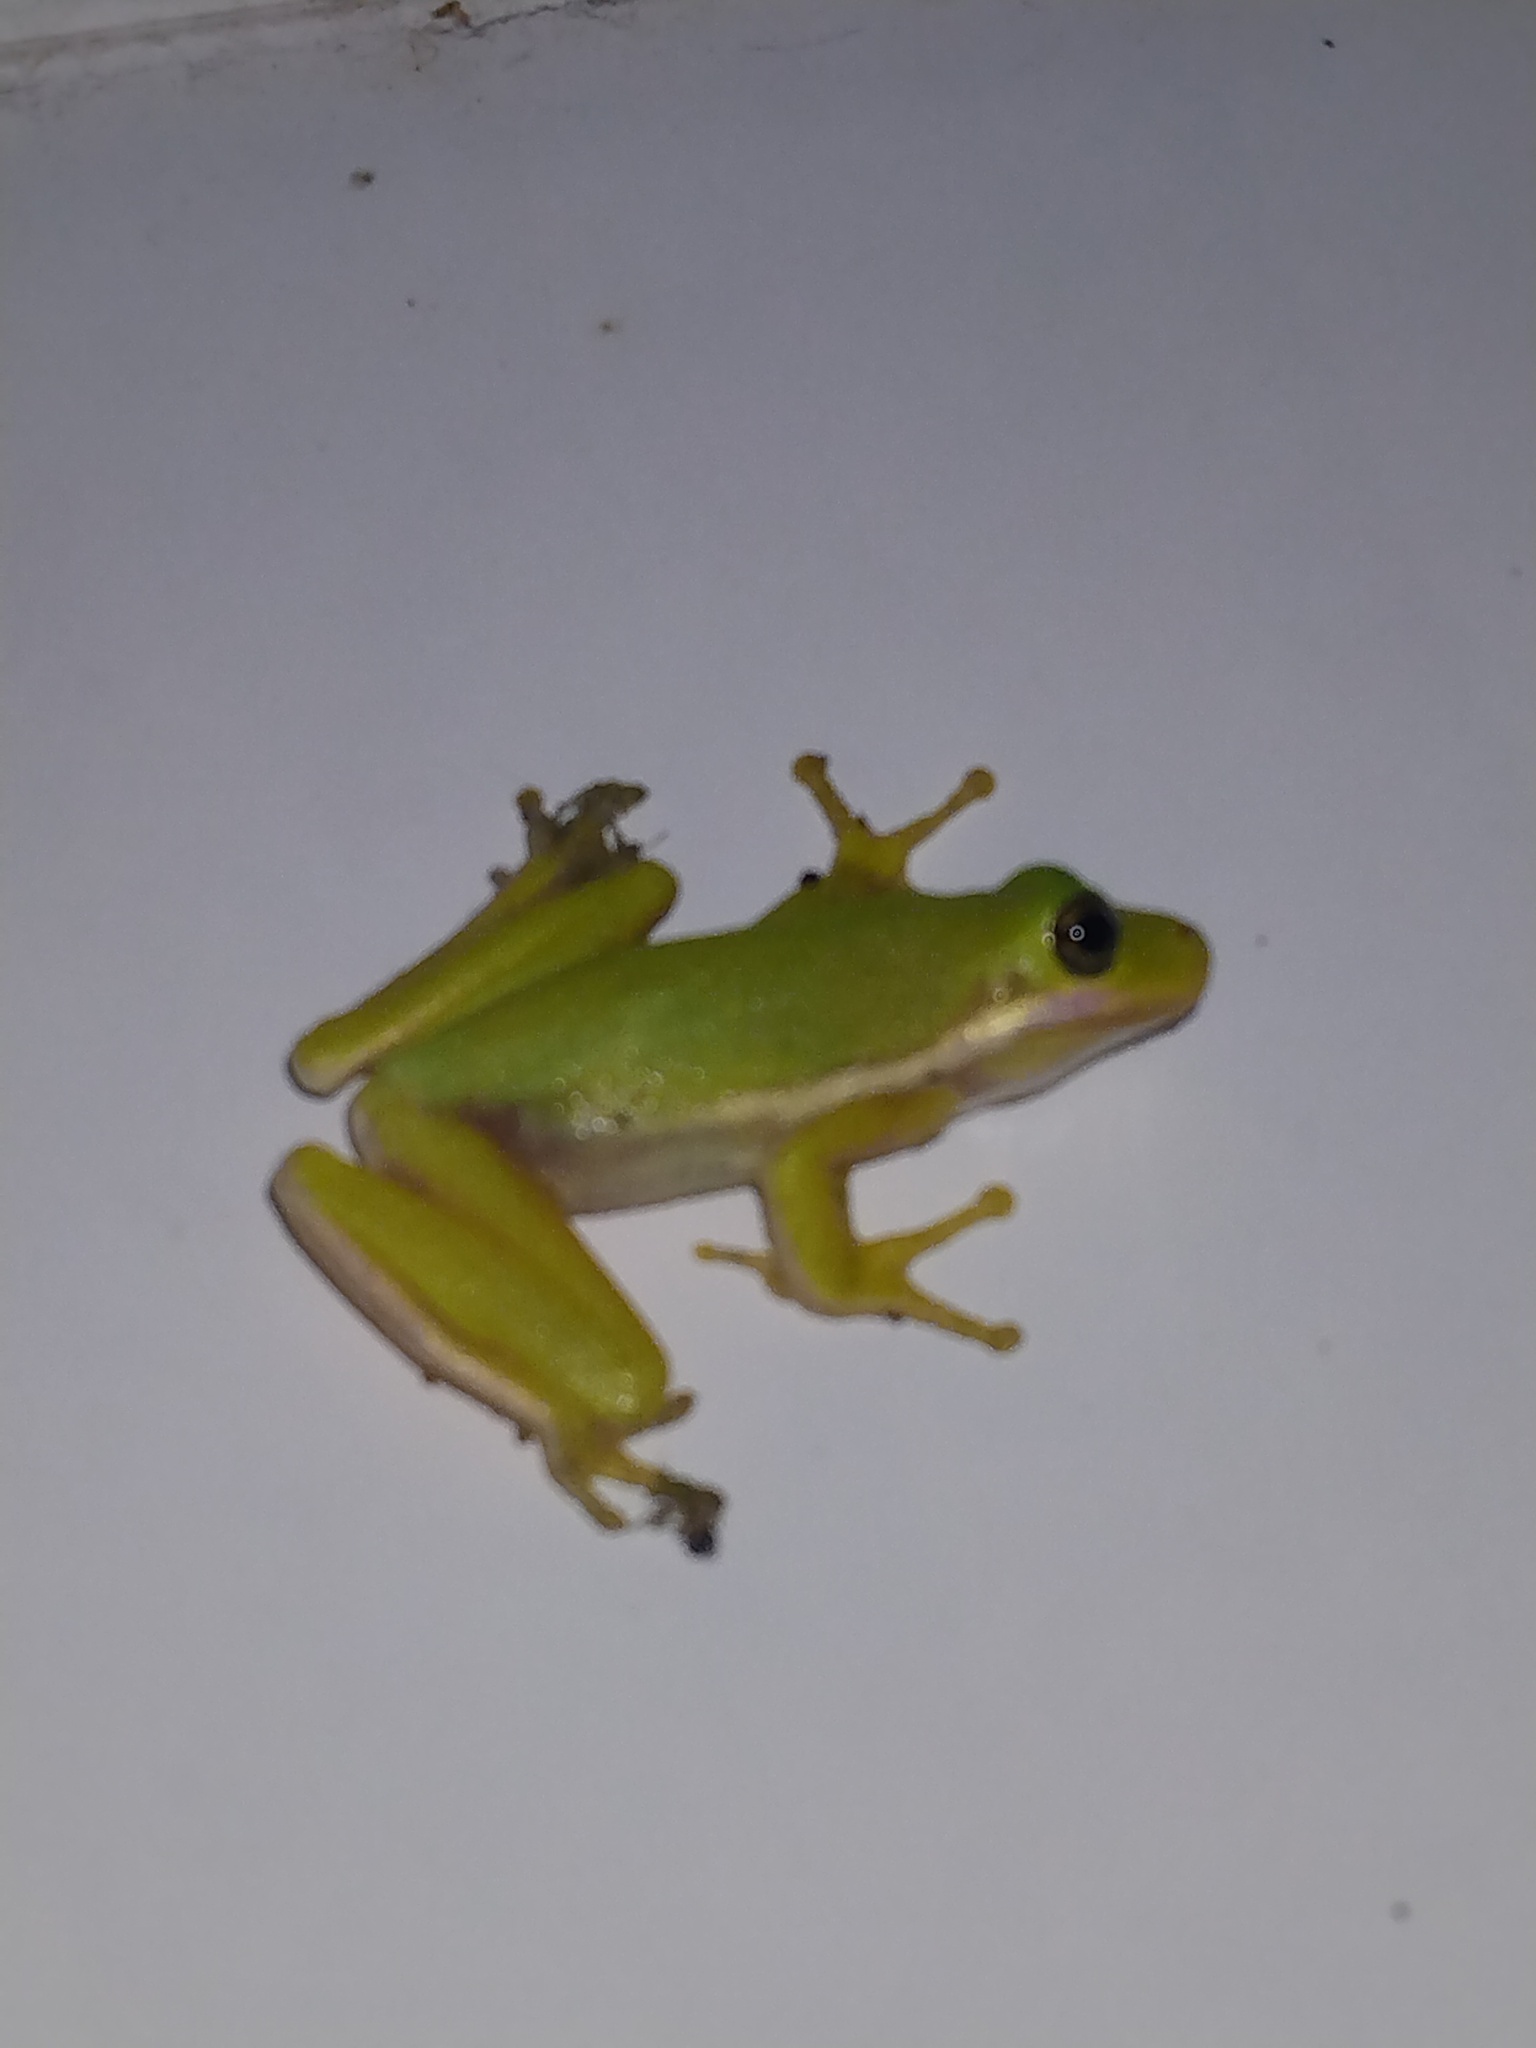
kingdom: Animalia
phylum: Chordata
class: Amphibia
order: Anura
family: Hylidae
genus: Dryophytes
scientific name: Dryophytes cinereus
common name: Green treefrog
